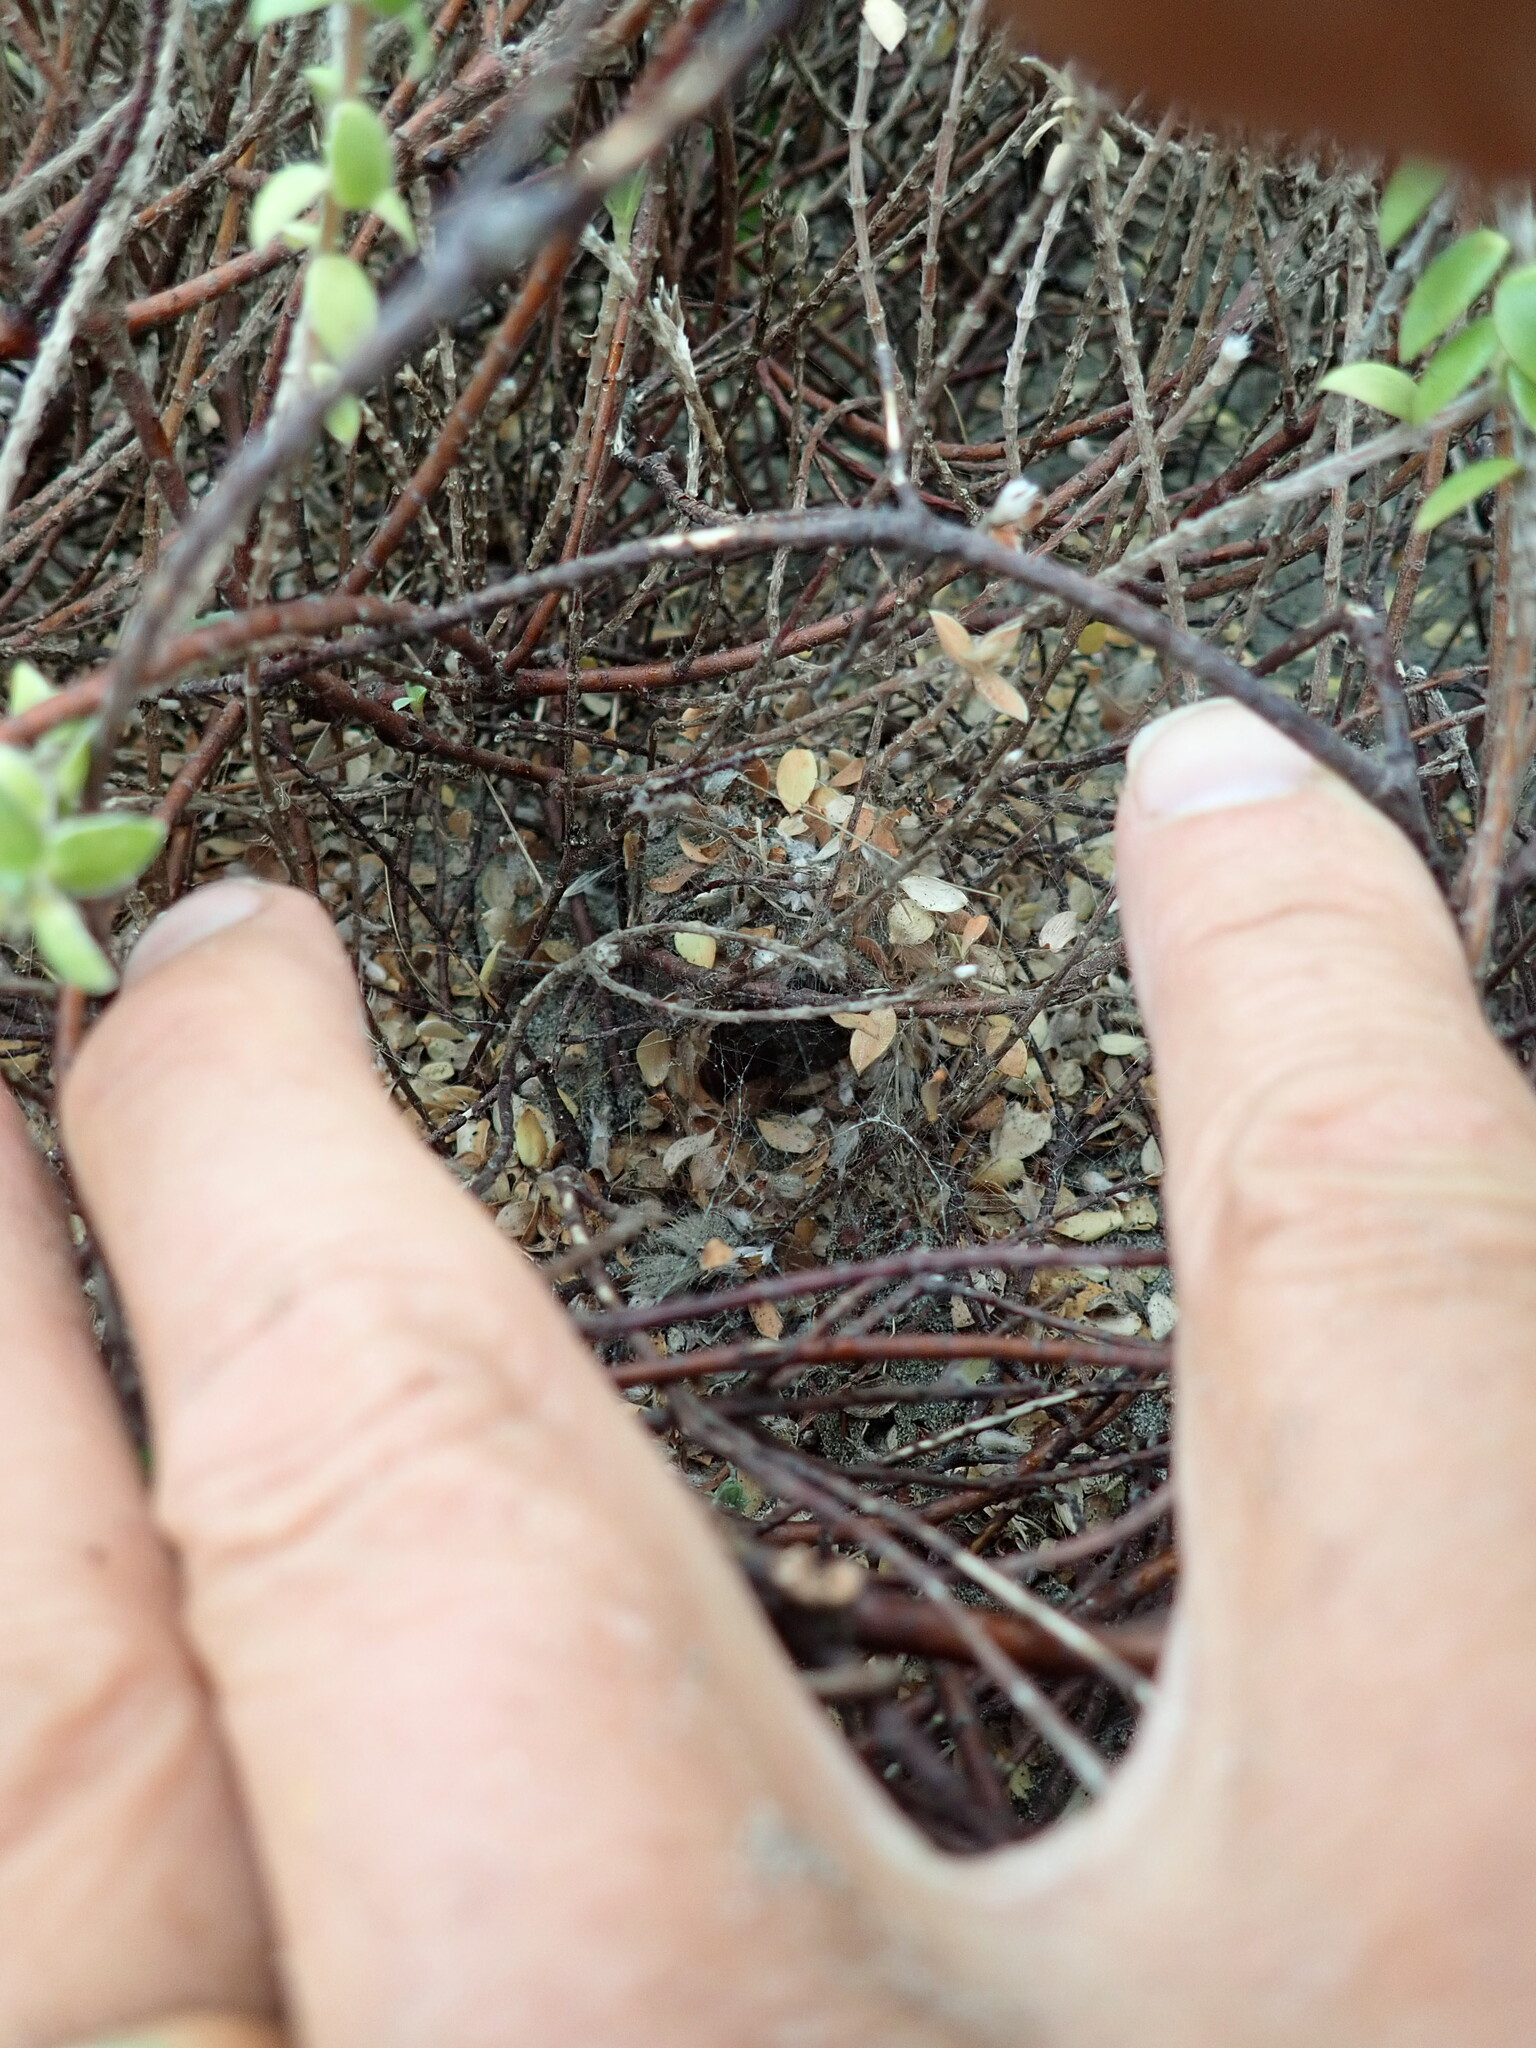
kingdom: Animalia
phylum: Arthropoda
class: Arachnida
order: Araneae
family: Theridiidae
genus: Latrodectus
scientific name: Latrodectus katipo
